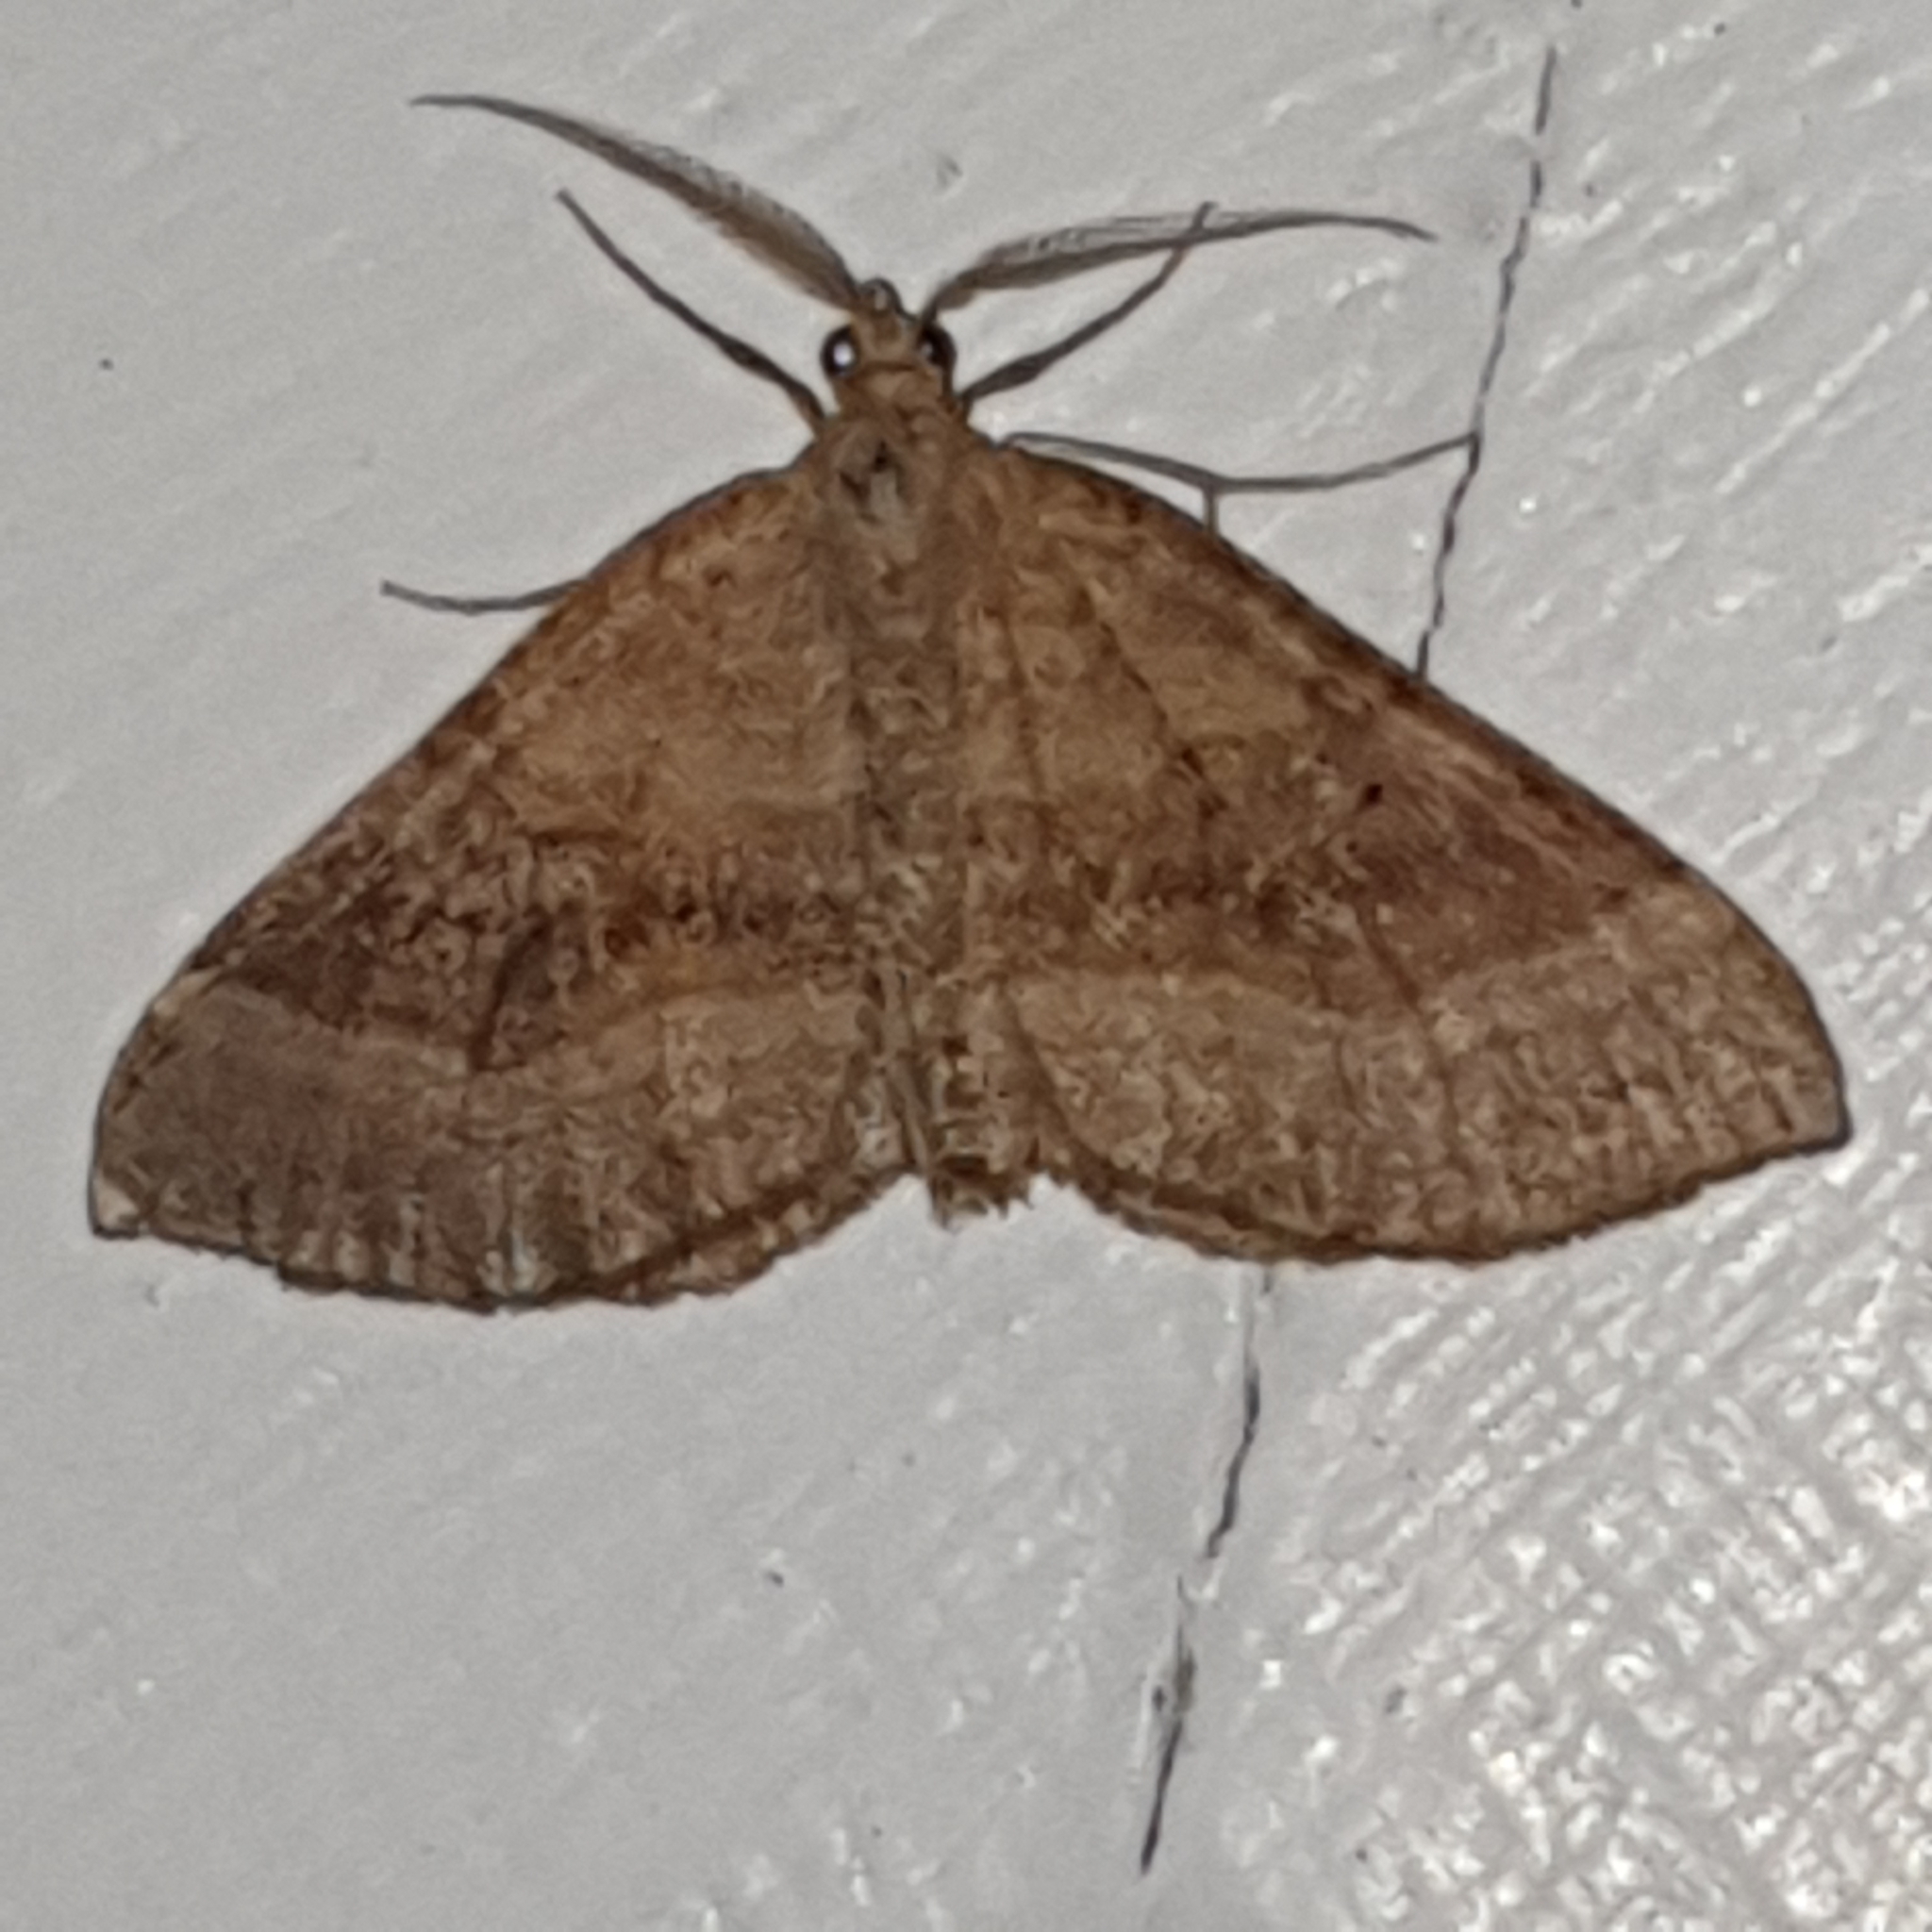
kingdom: Animalia
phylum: Arthropoda
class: Insecta
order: Lepidoptera
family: Geometridae
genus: Scotopteryx
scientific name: Scotopteryx chenopodiata
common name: Shaded broad-bar
